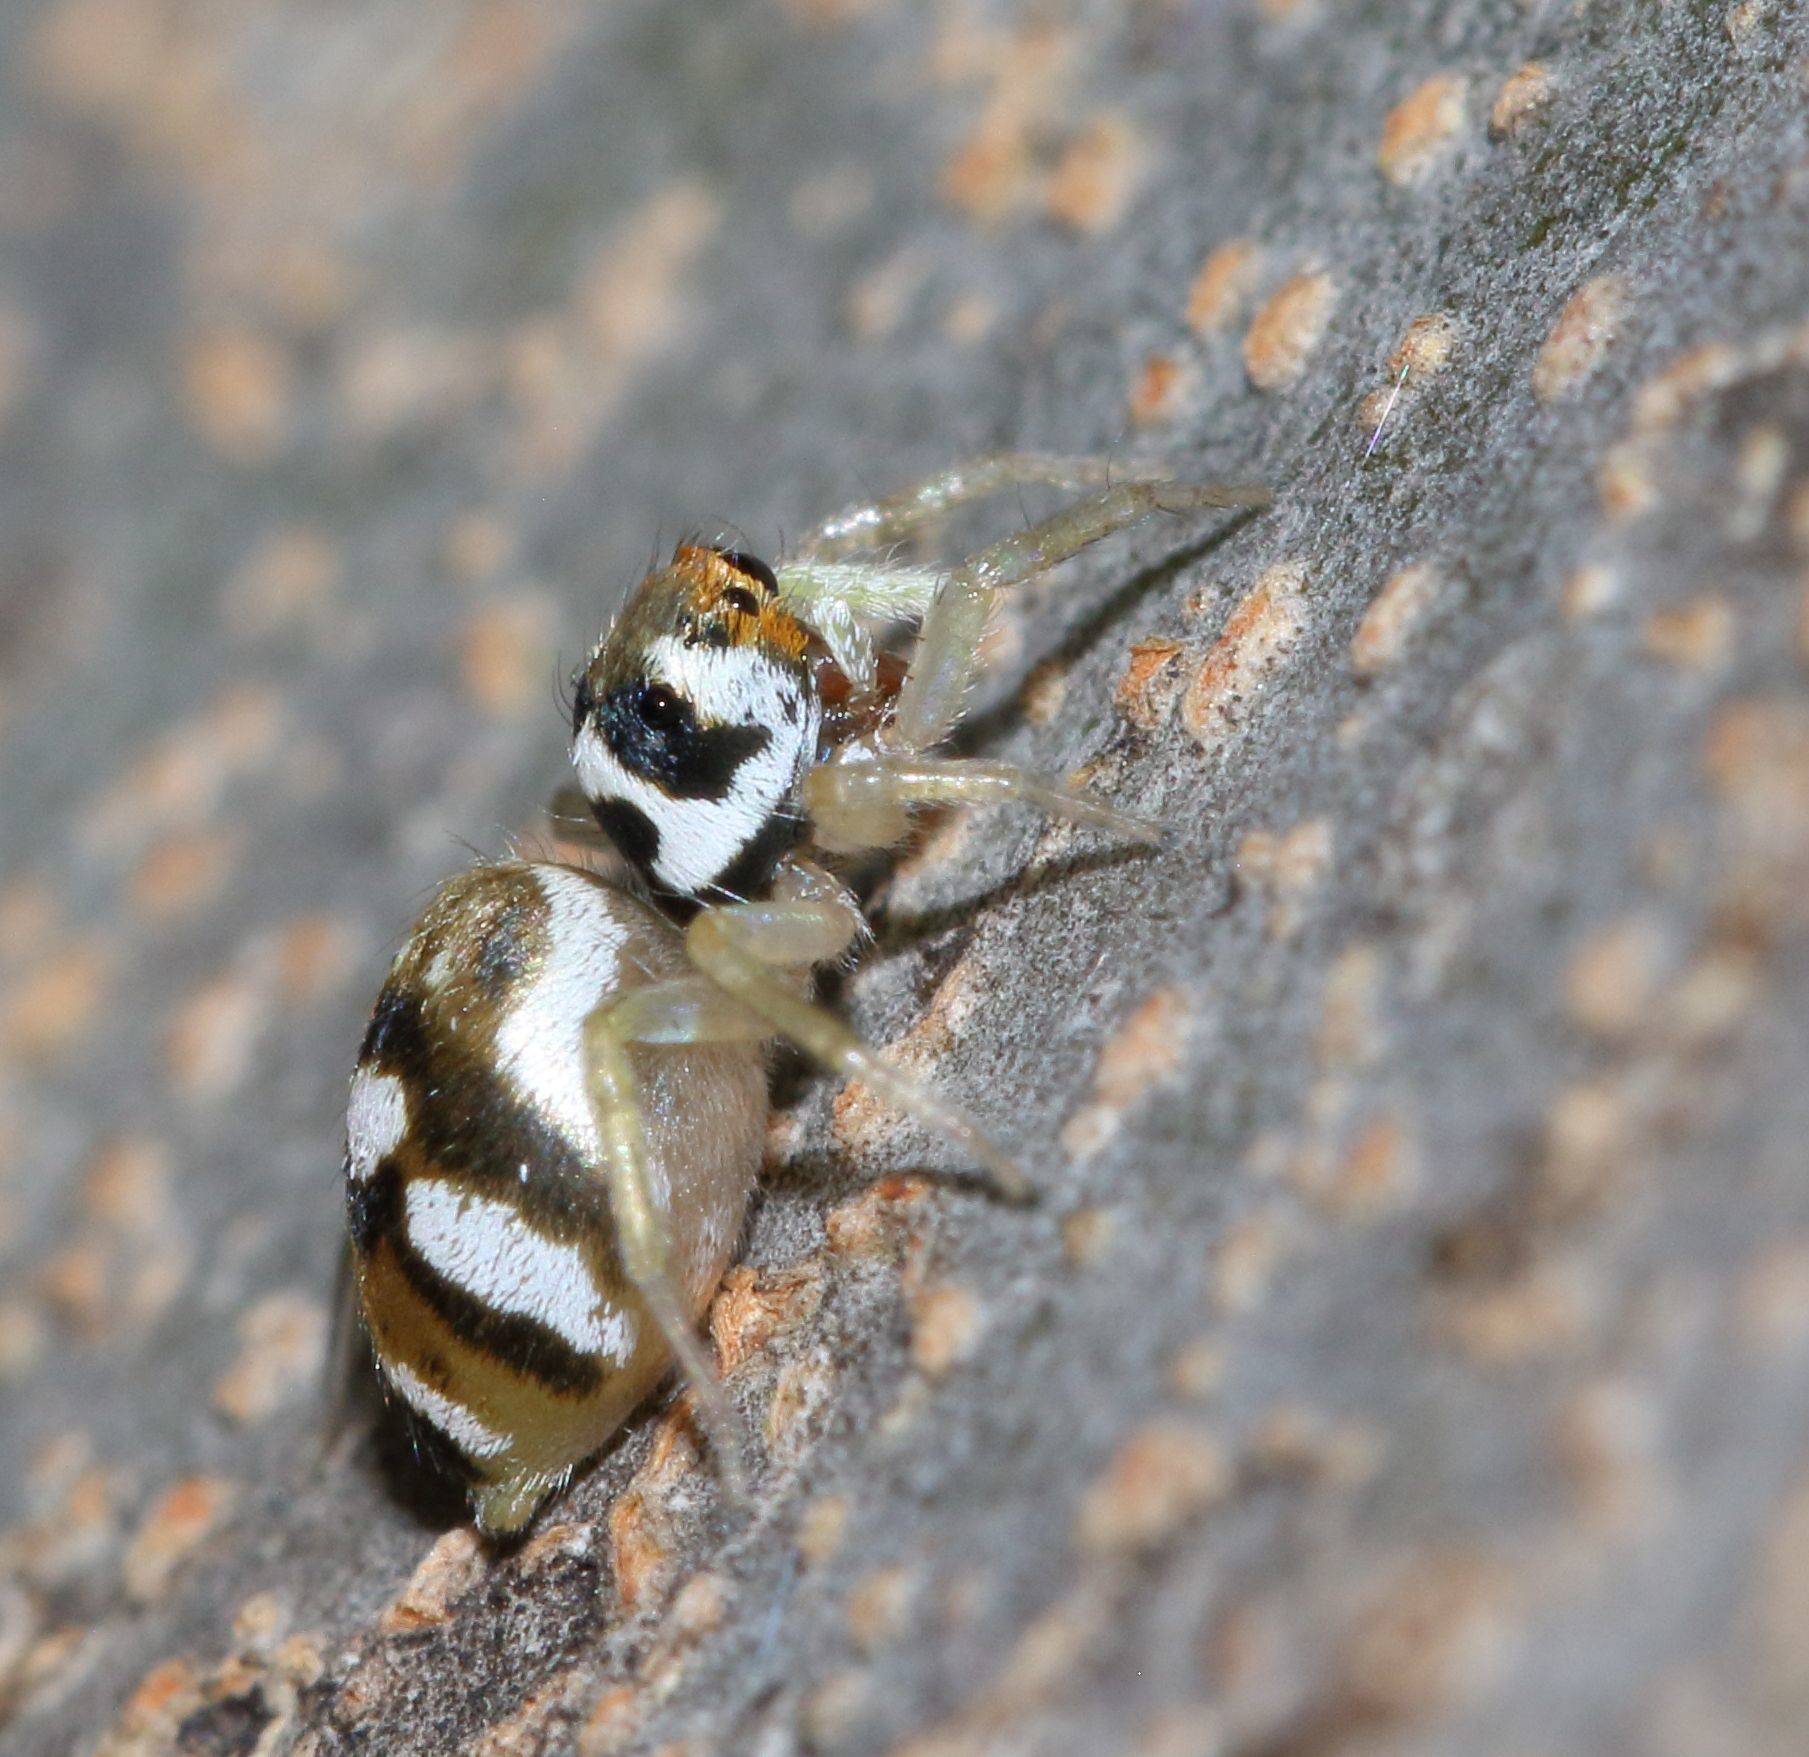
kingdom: Animalia
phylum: Arthropoda
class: Arachnida
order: Araneae
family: Salticidae
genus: Phintella
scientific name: Phintella aequipes
